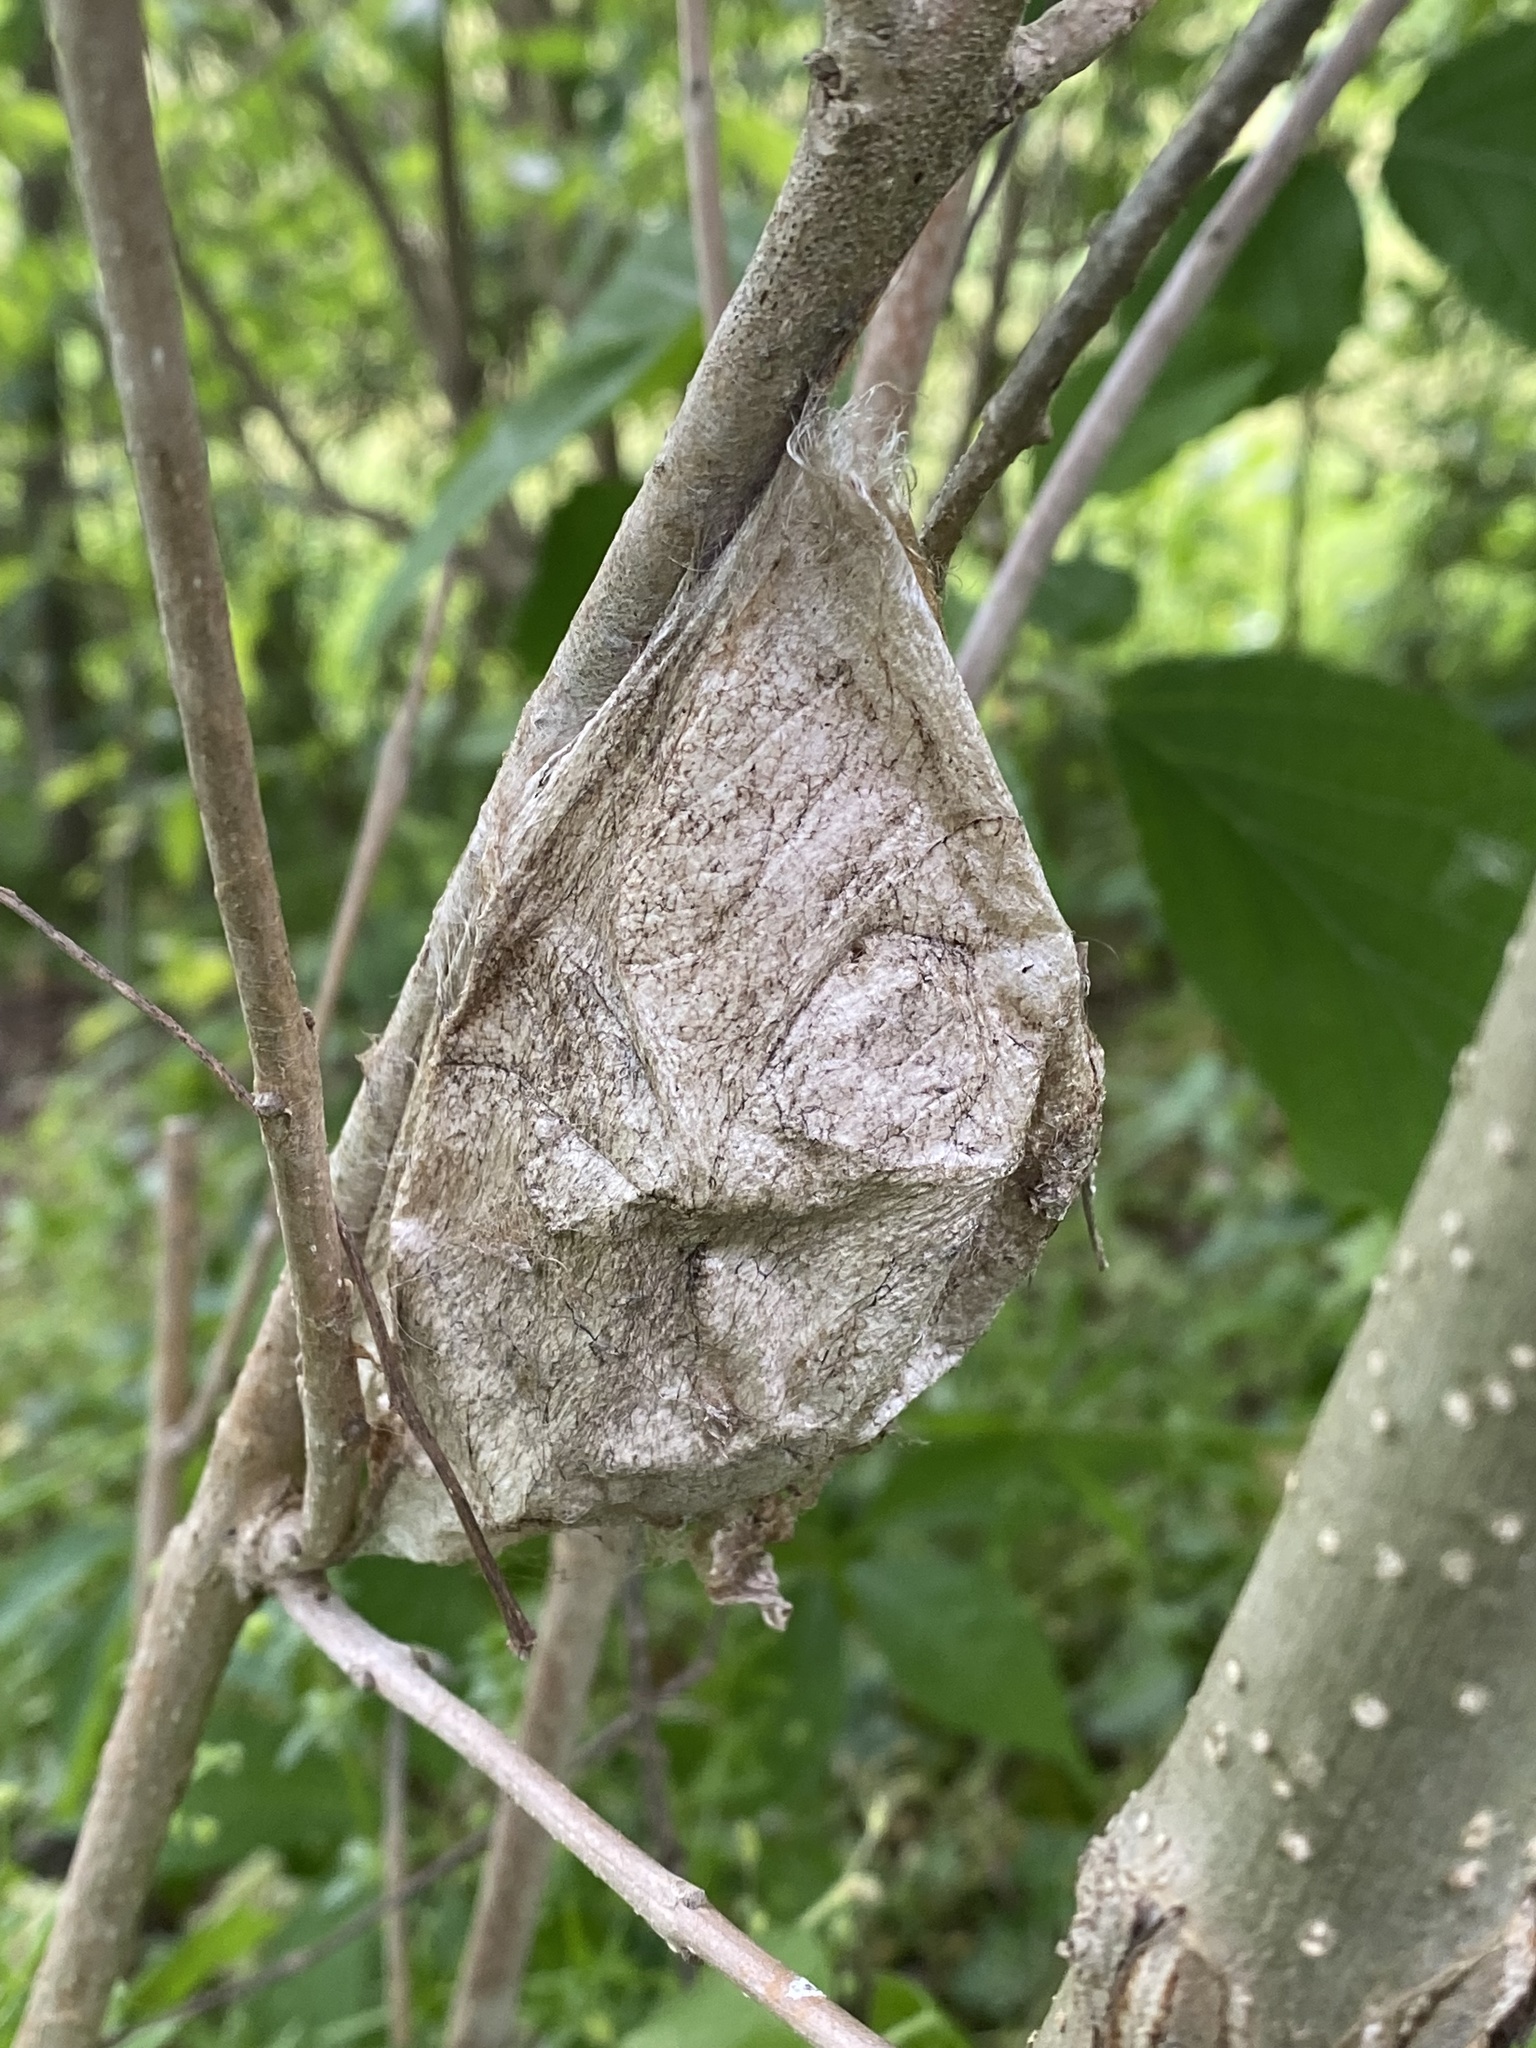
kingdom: Animalia
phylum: Arthropoda
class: Insecta
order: Lepidoptera
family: Saturniidae
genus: Hyalophora
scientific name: Hyalophora cecropia
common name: Cecropia silkmoth
